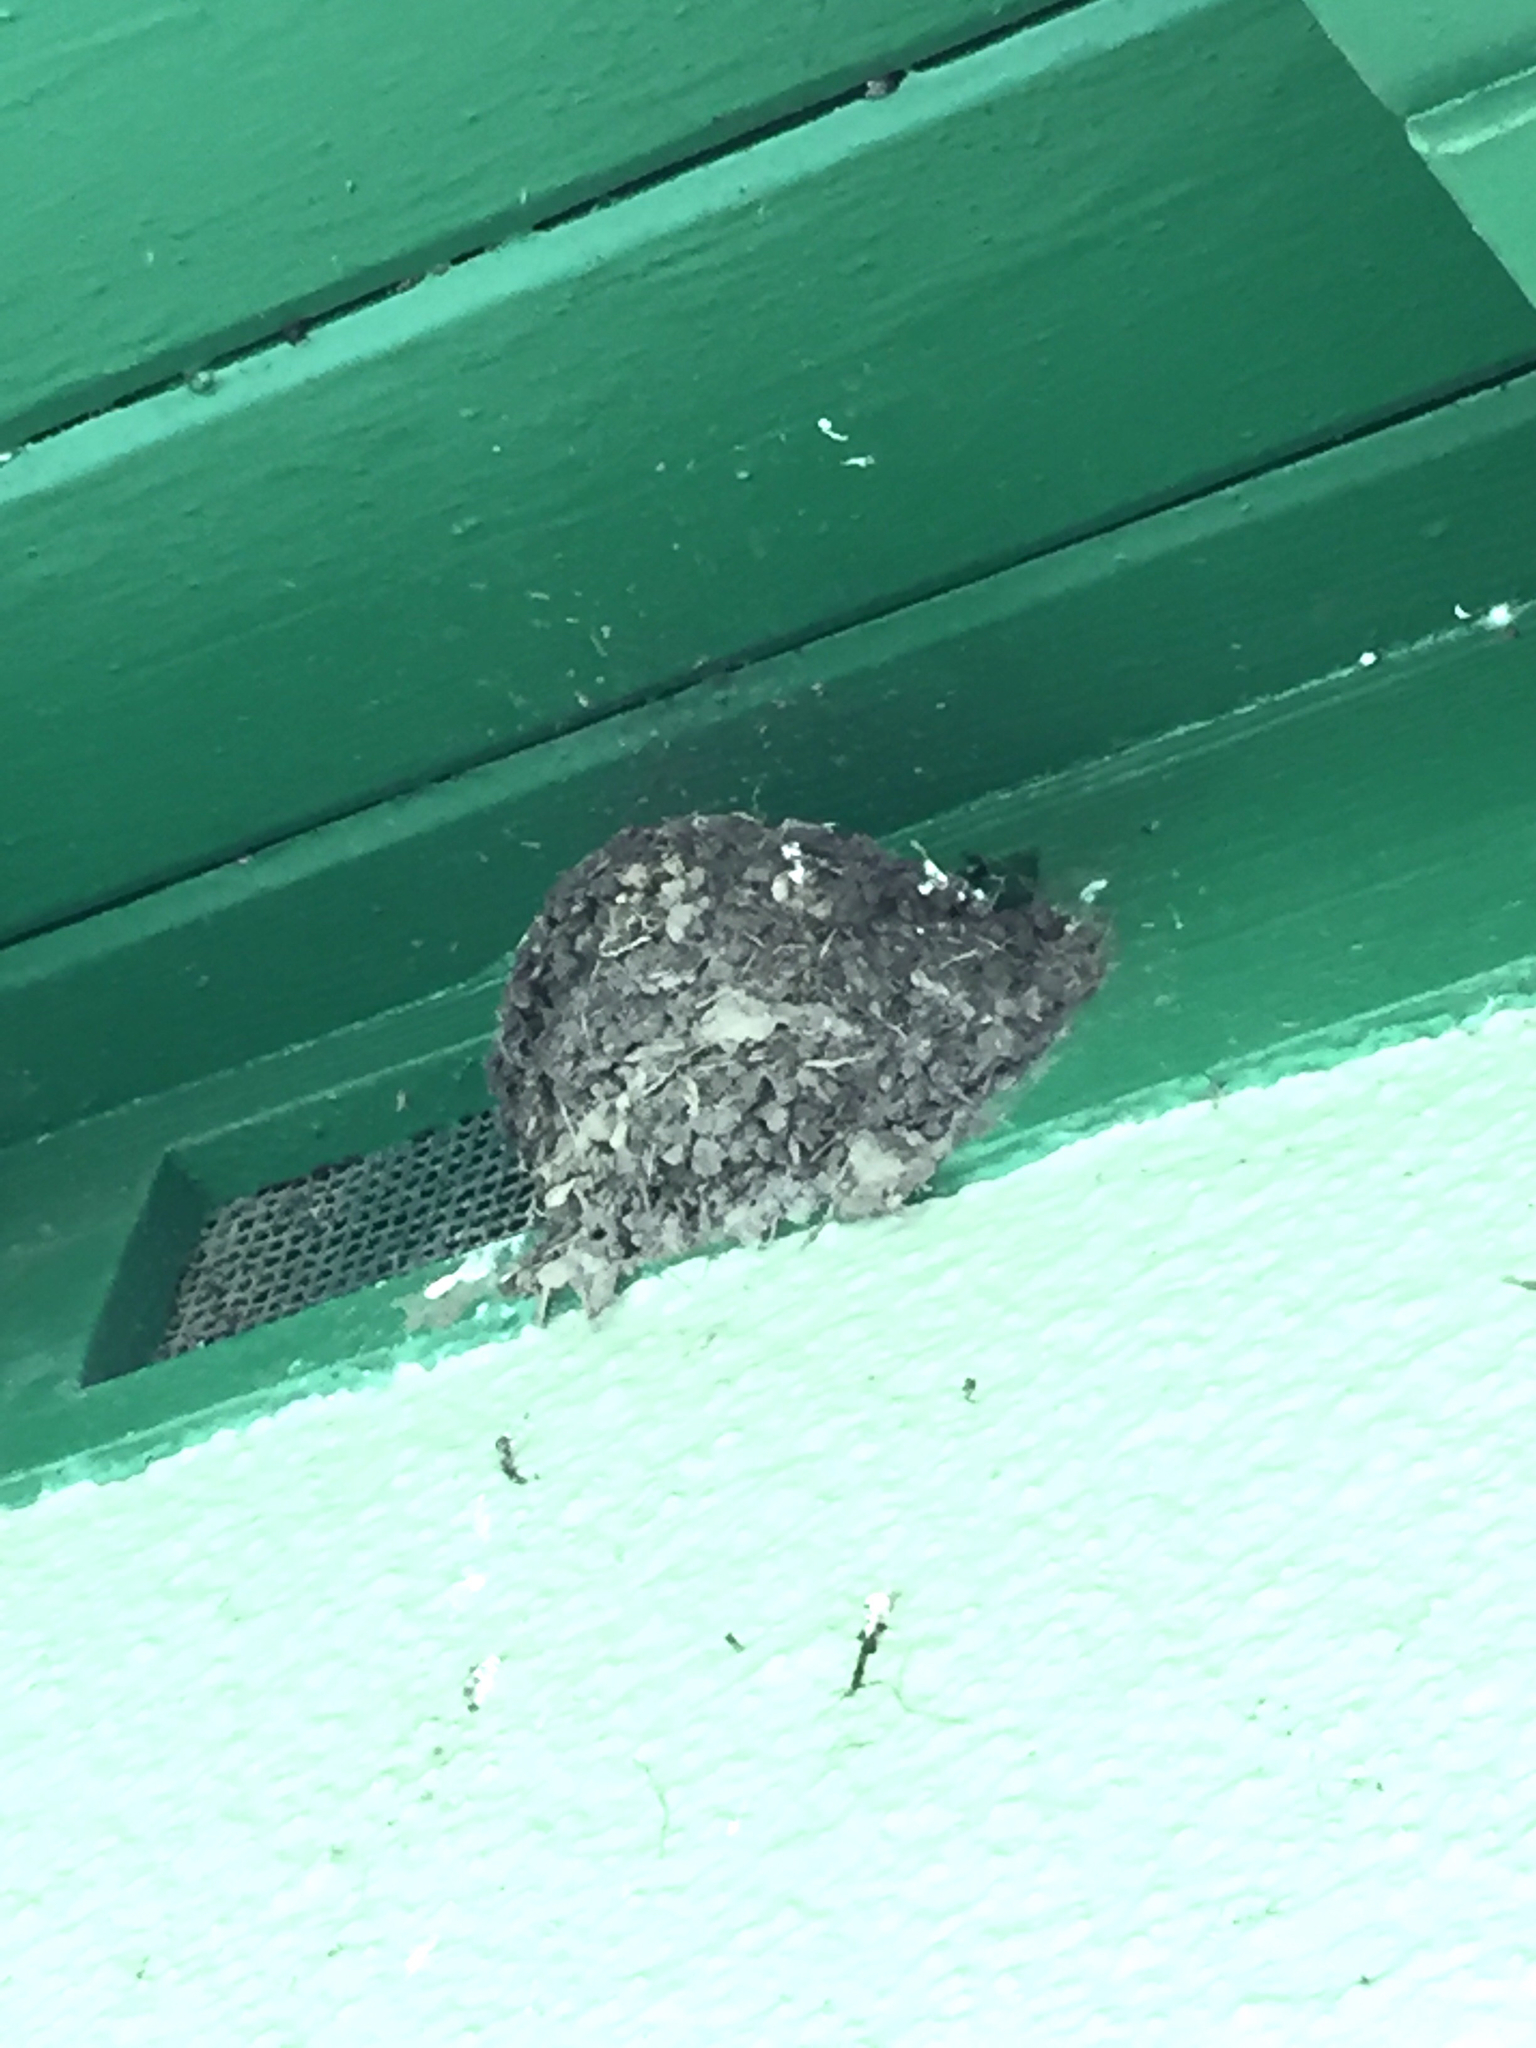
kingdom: Animalia
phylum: Chordata
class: Aves
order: Passeriformes
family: Hirundinidae
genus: Hirundo
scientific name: Hirundo rustica
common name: Barn swallow
